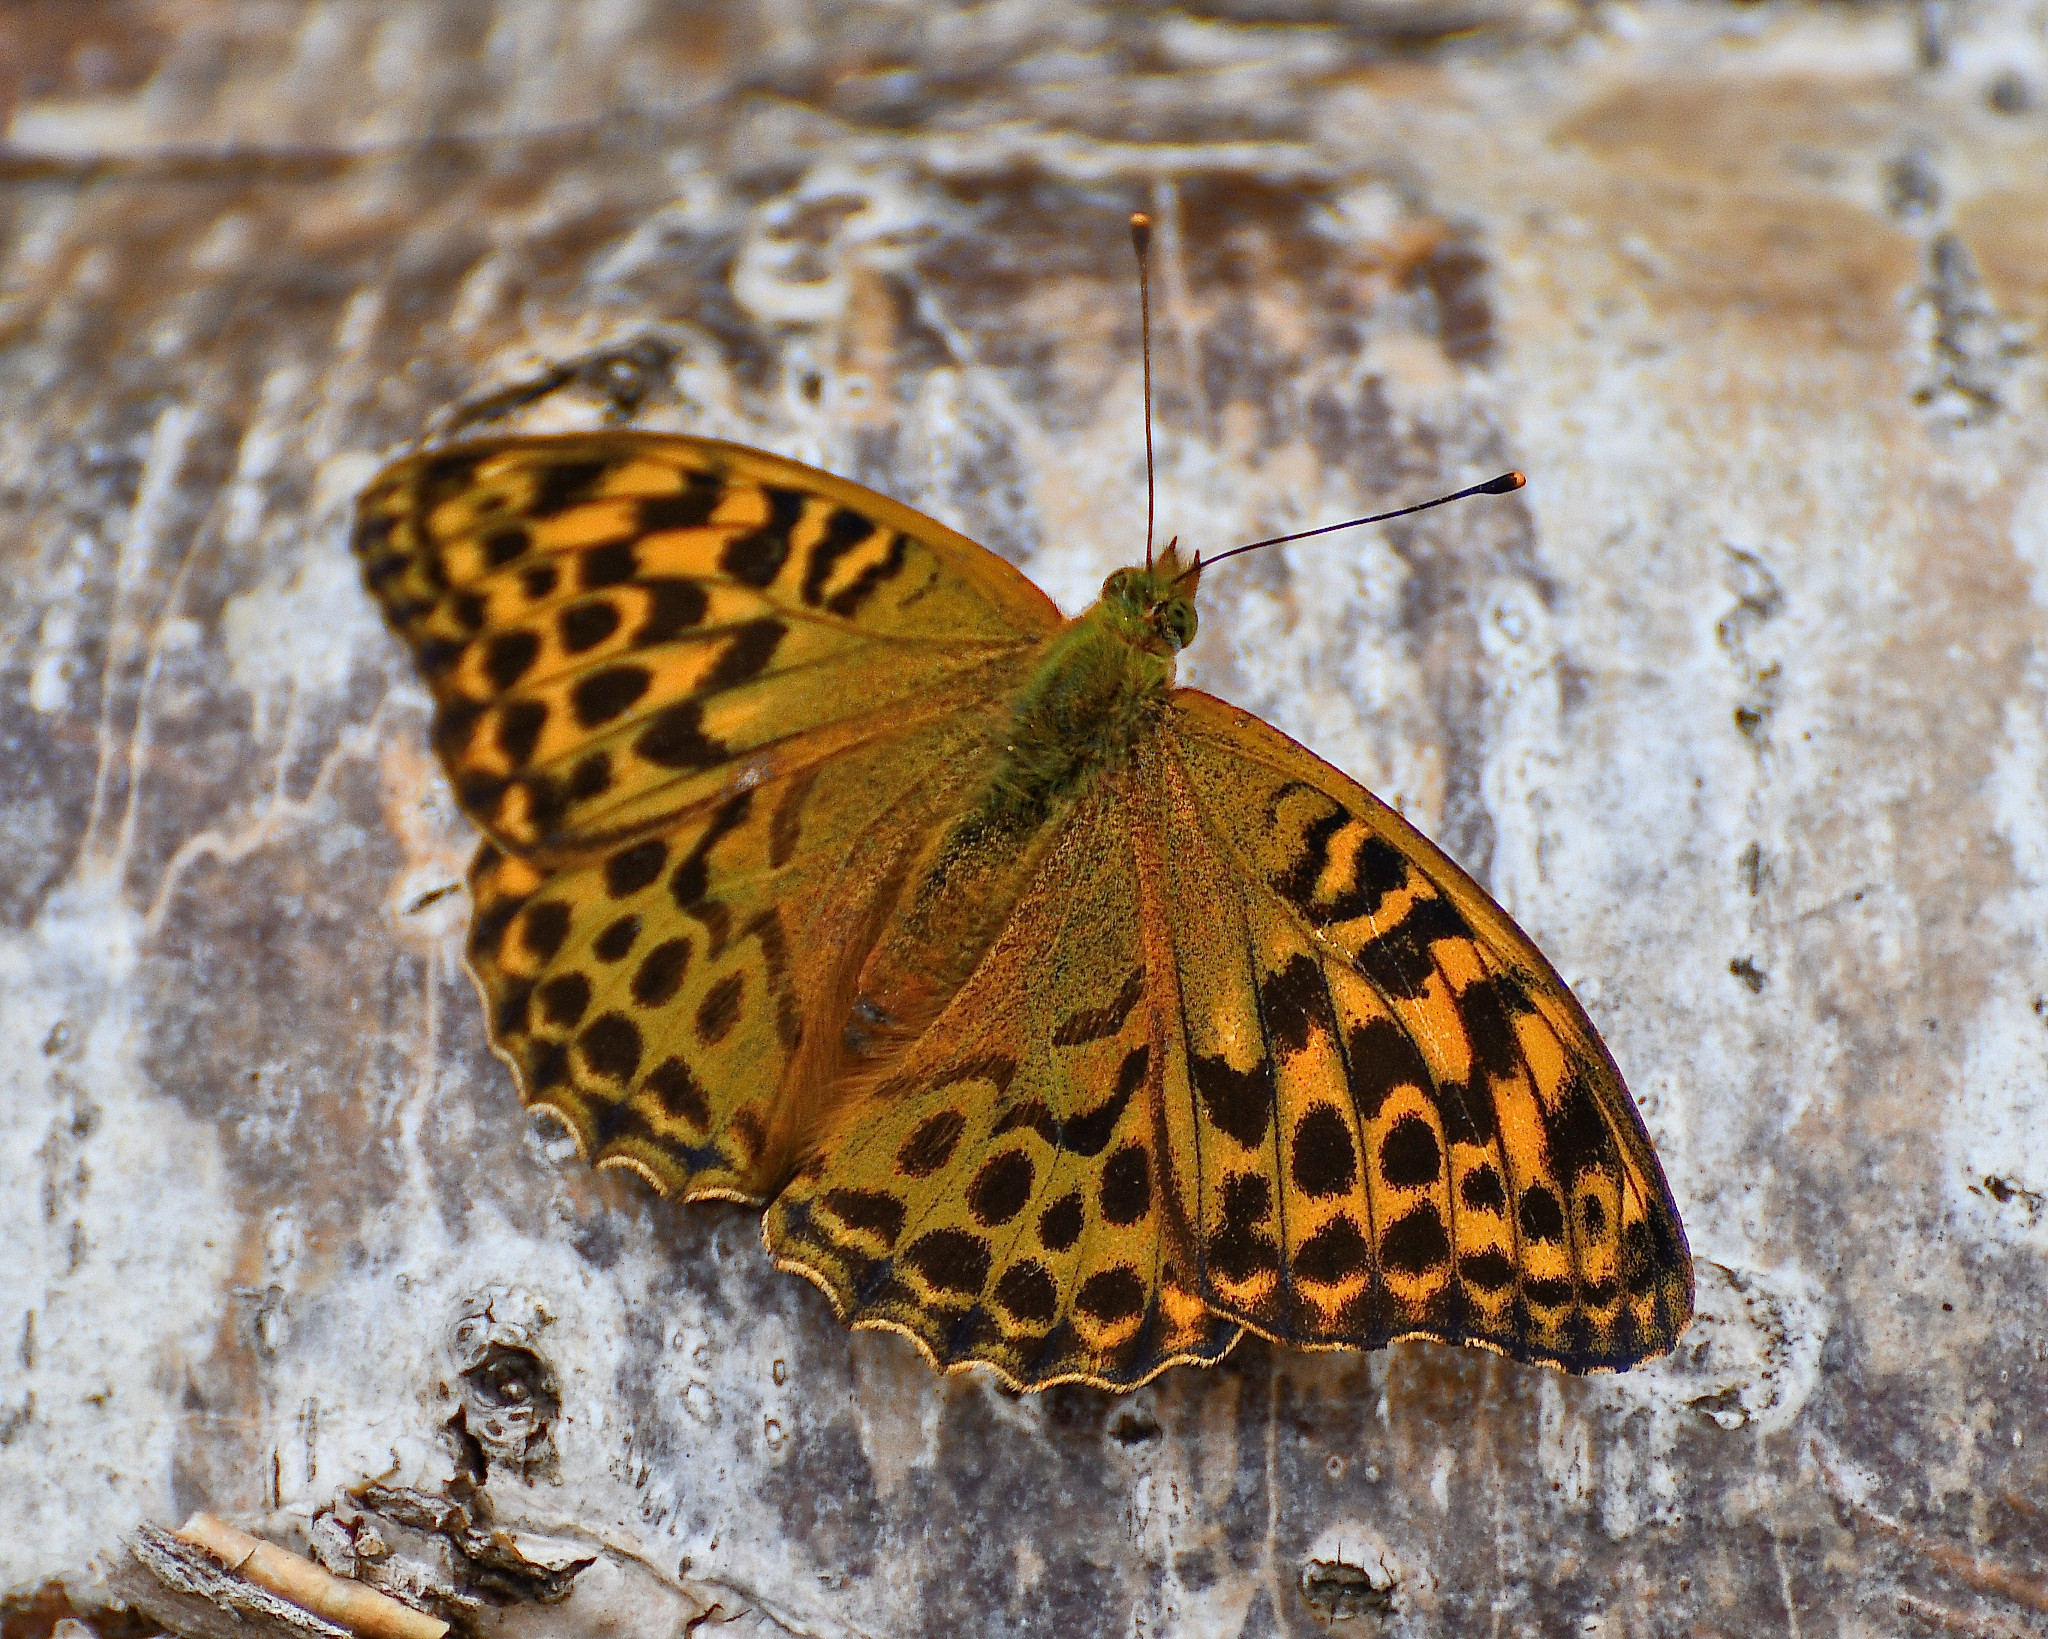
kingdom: Animalia
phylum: Arthropoda
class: Insecta
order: Lepidoptera
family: Nymphalidae
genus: Argynnis
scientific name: Argynnis paphia
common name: Silver-washed fritillary
